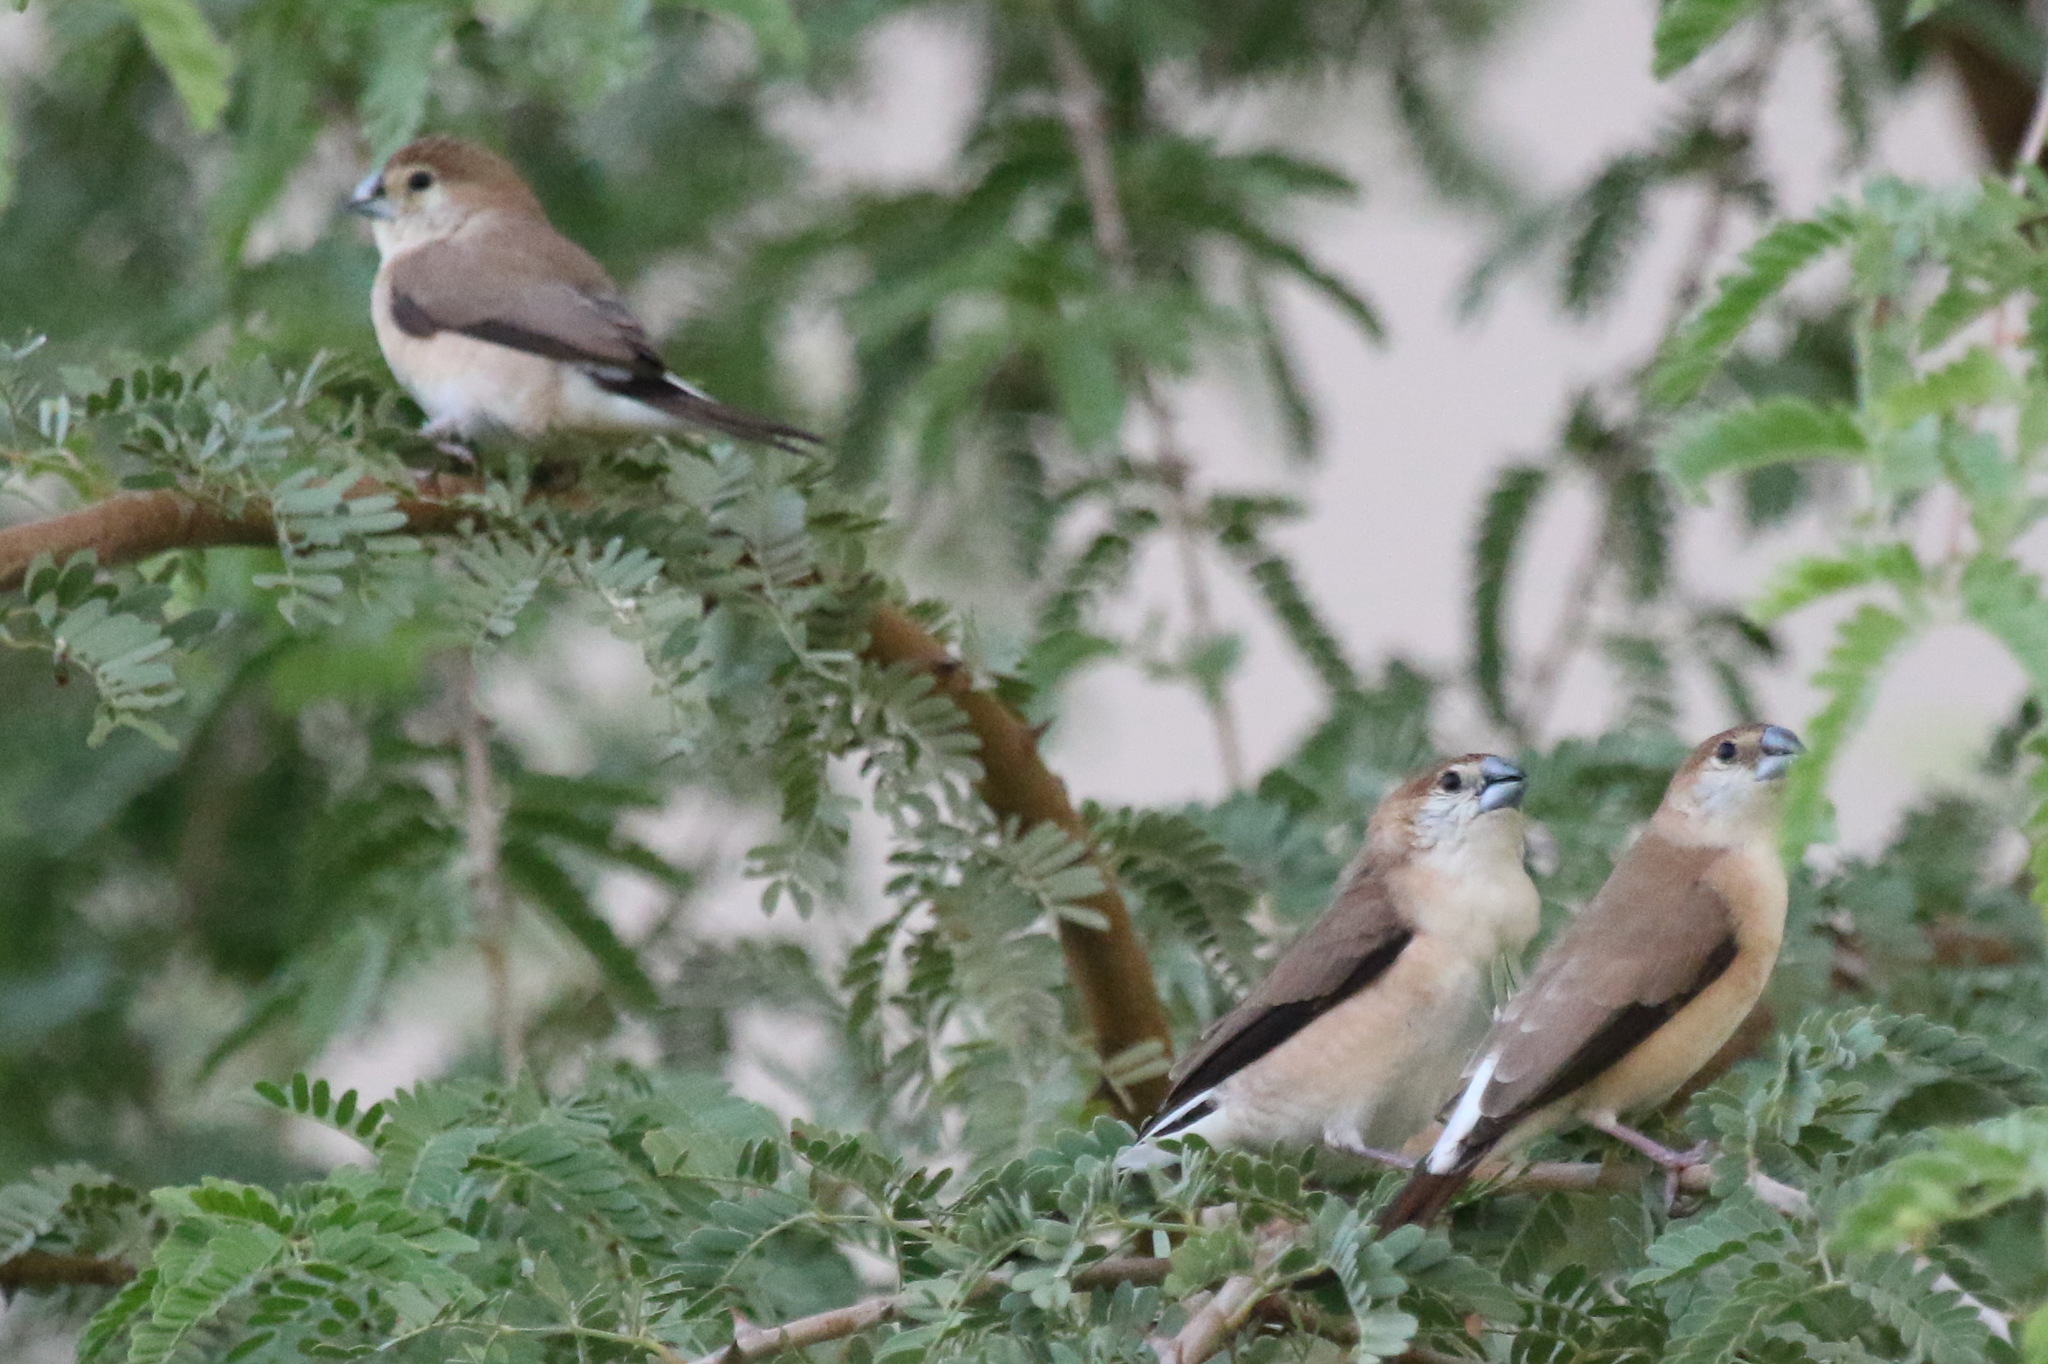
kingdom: Animalia
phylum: Chordata
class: Aves
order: Passeriformes
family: Estrildidae
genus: Euodice
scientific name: Euodice malabarica
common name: Indian silverbill
